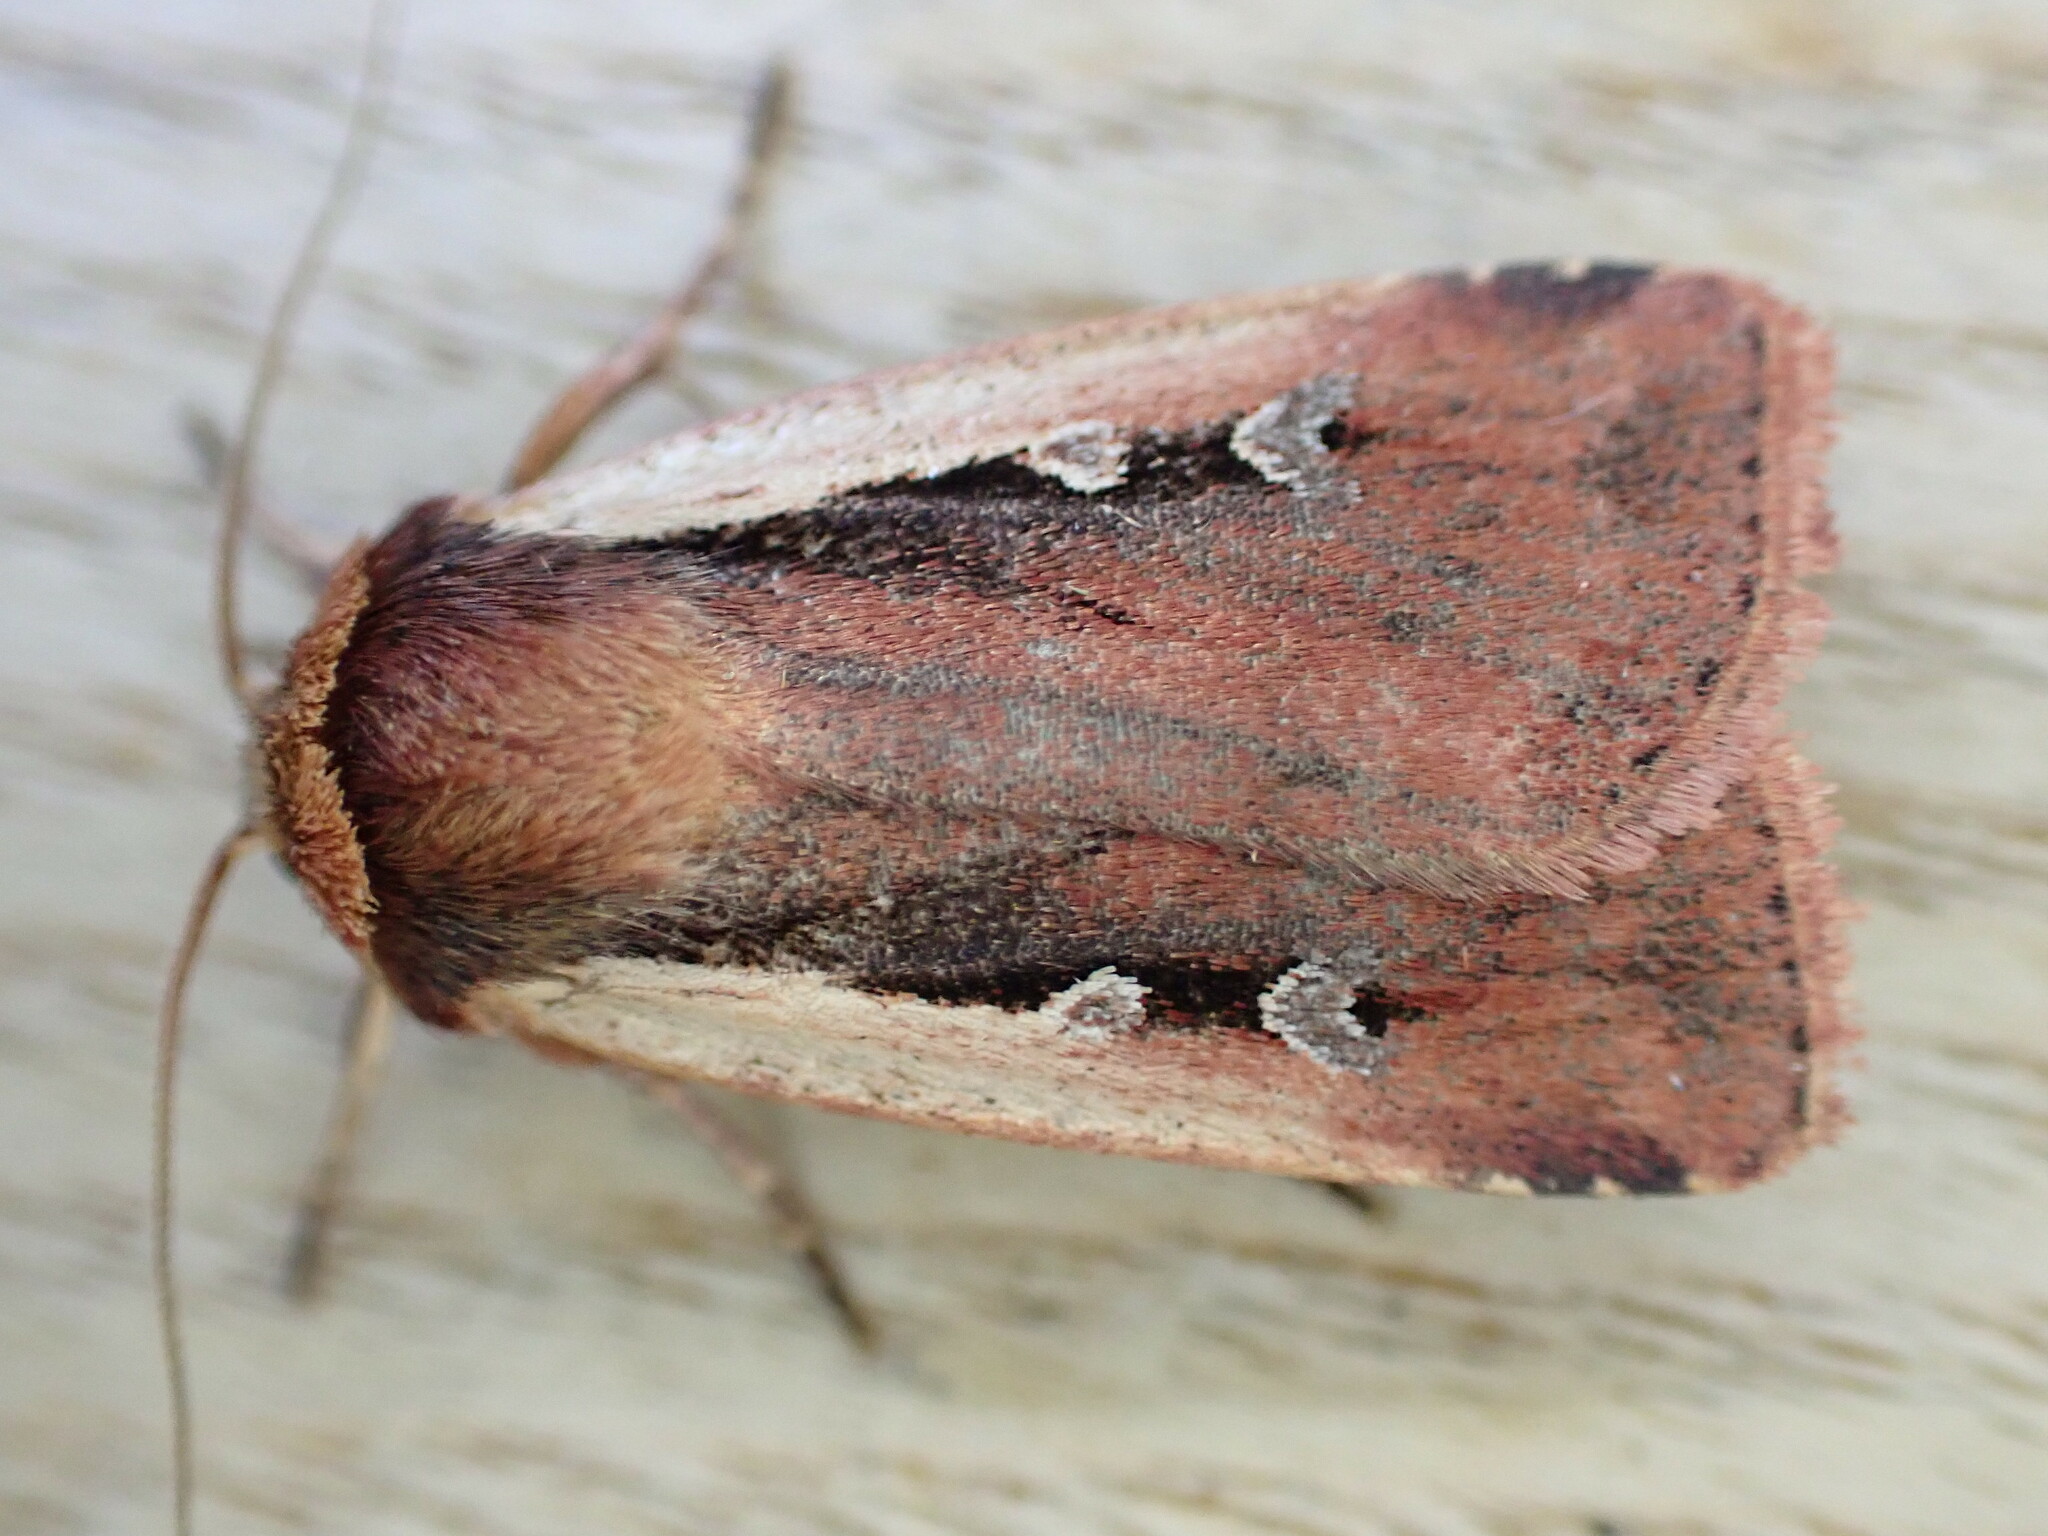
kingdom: Animalia
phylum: Arthropoda
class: Insecta
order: Lepidoptera
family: Noctuidae
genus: Ochropleura
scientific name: Ochropleura plecta
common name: Flame shoulder
